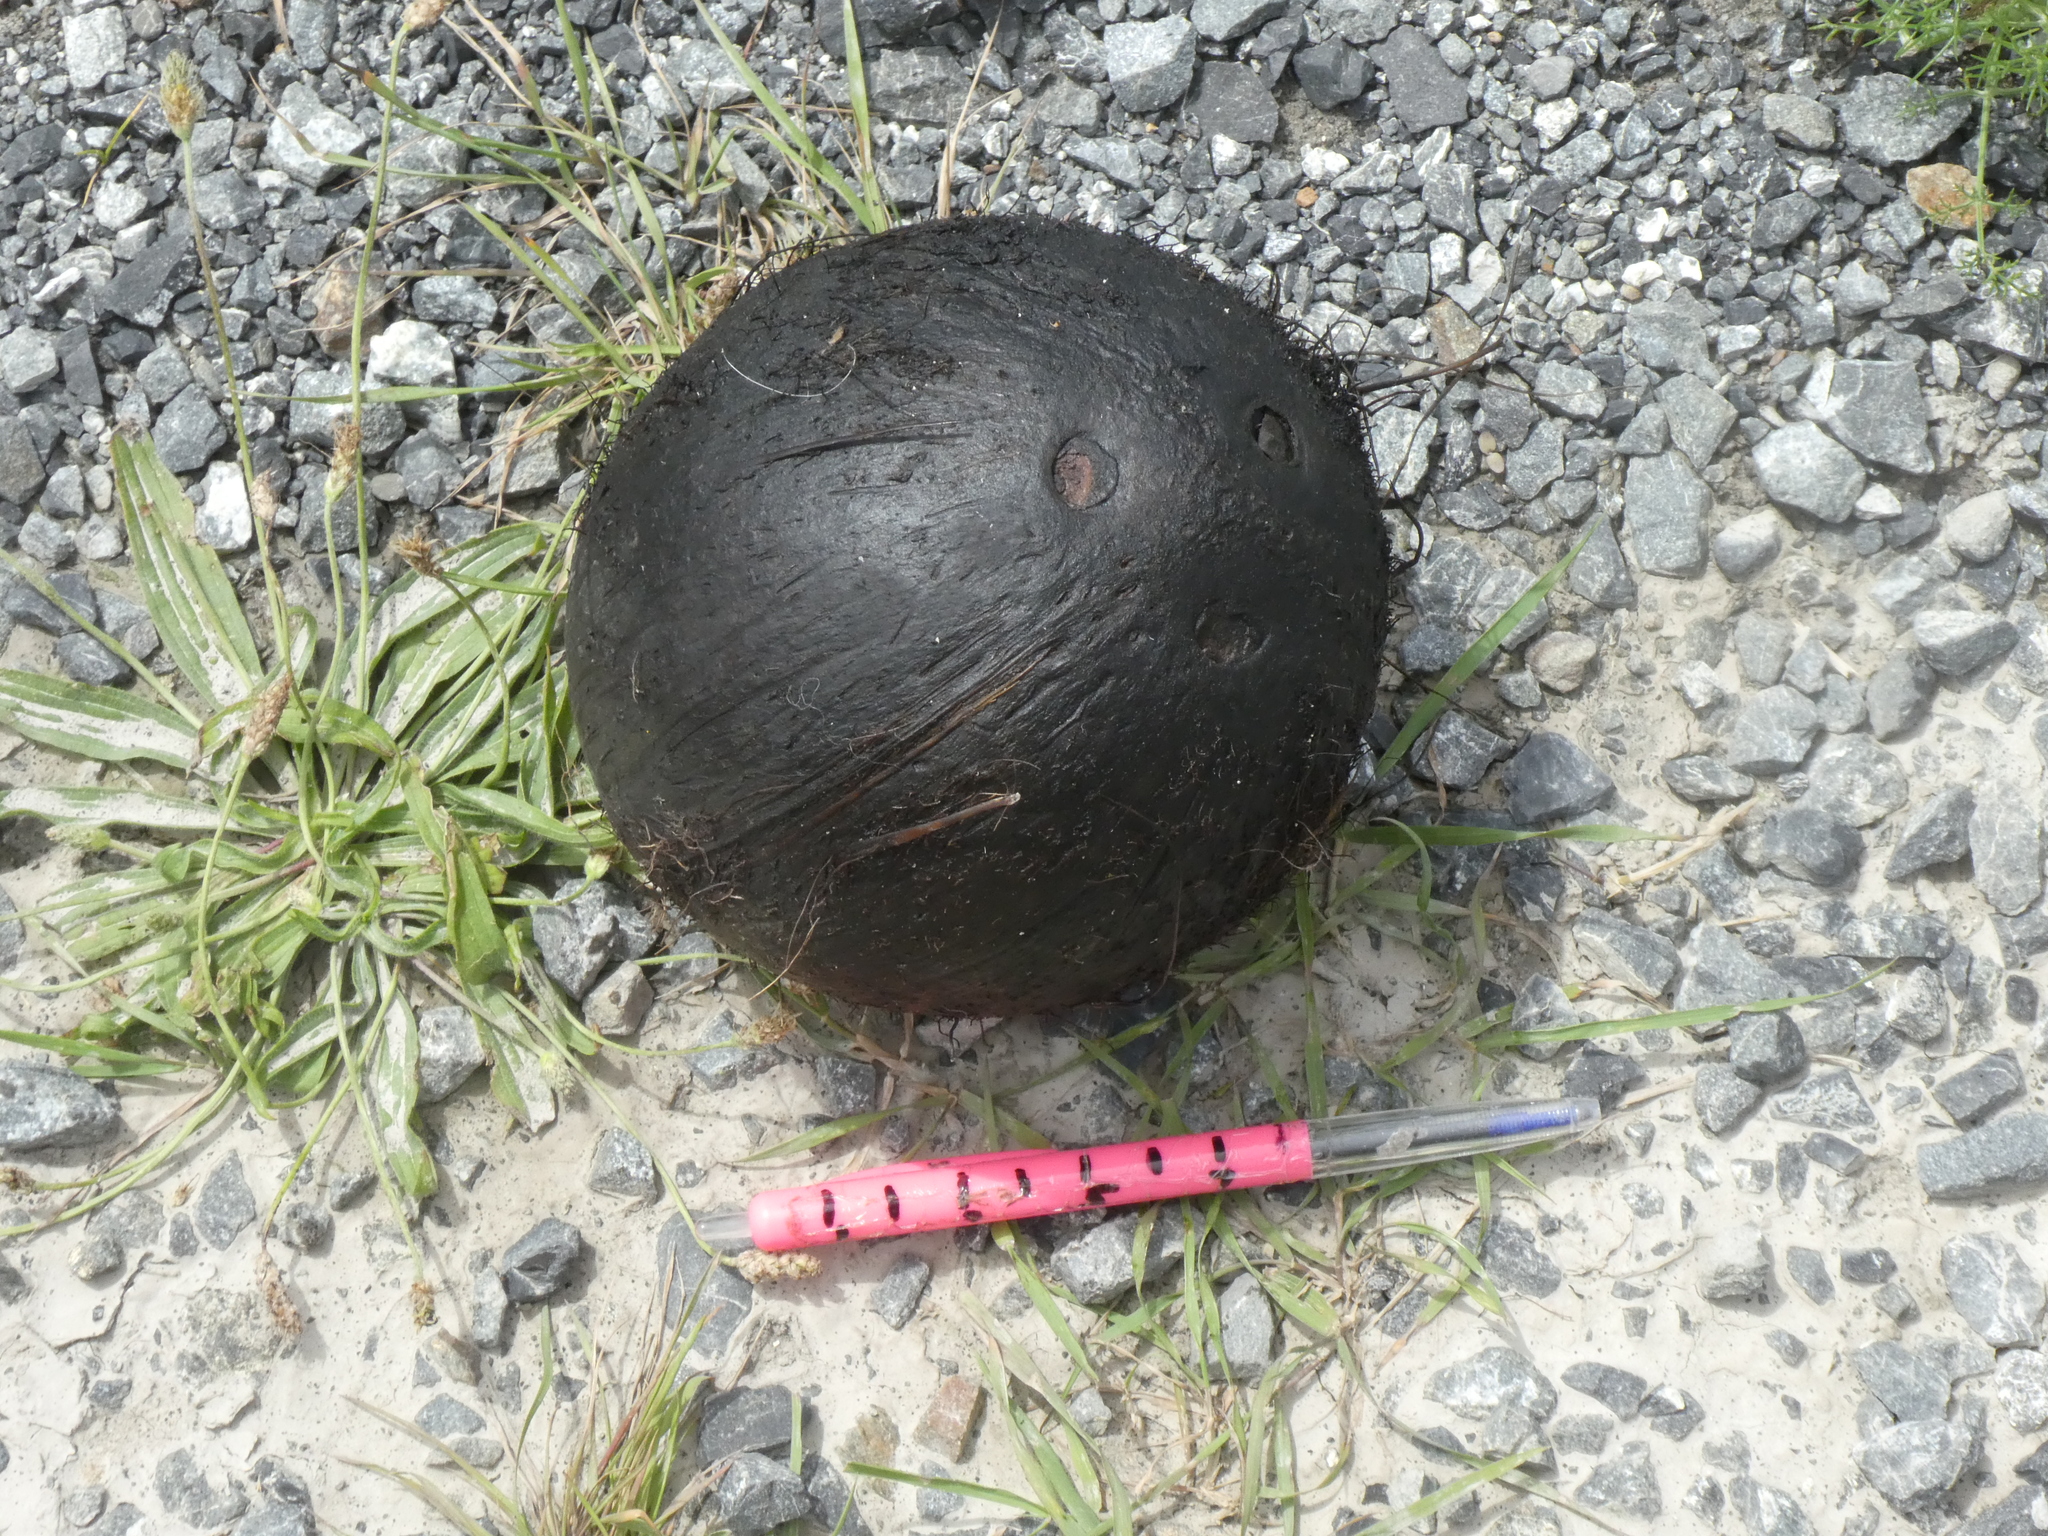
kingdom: Plantae
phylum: Tracheophyta
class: Liliopsida
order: Arecales
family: Arecaceae
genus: Cocos
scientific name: Cocos nucifera
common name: Coconut palm
